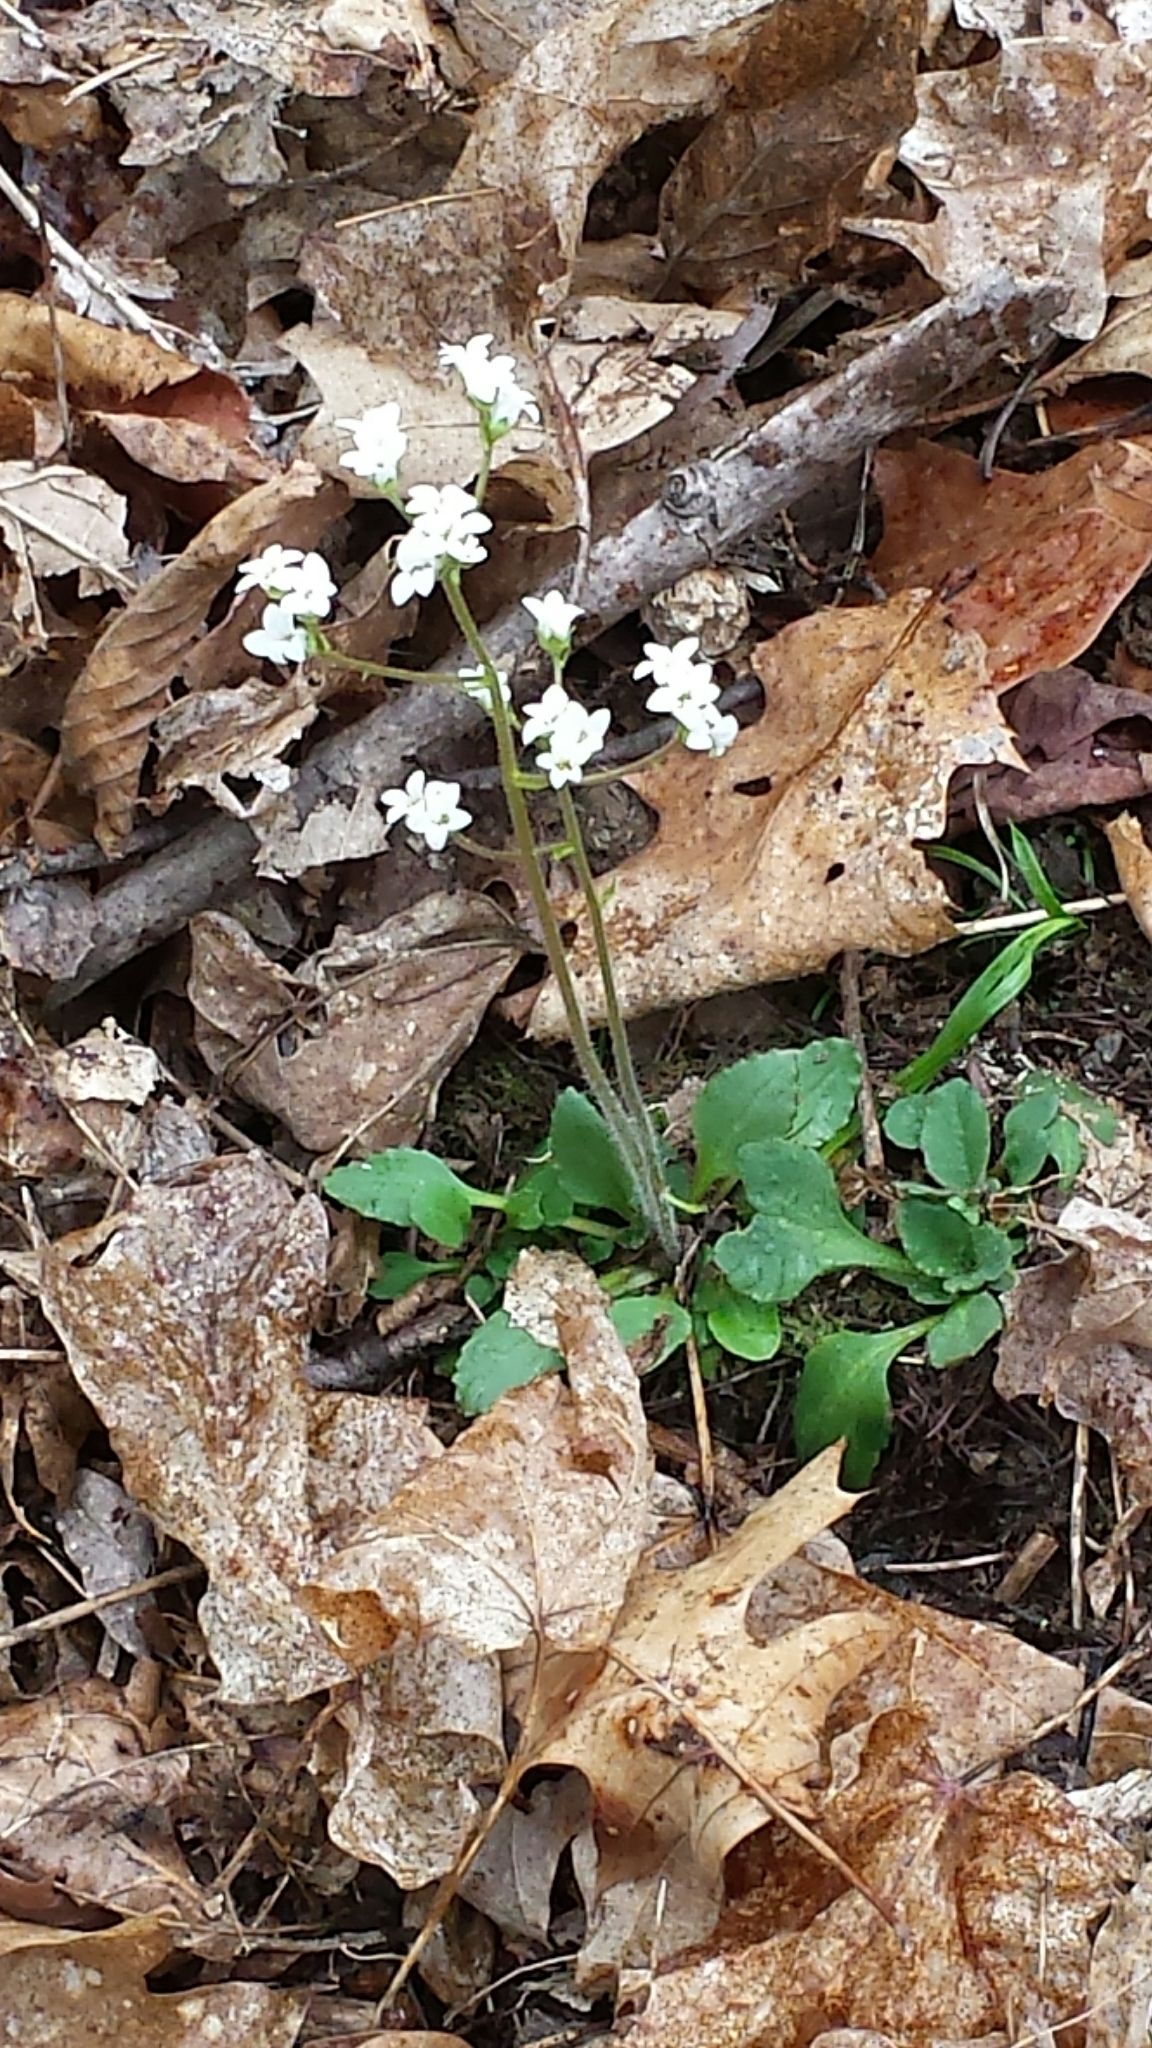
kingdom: Plantae
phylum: Tracheophyta
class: Magnoliopsida
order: Saxifragales
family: Saxifragaceae
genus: Micranthes
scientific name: Micranthes virginiensis
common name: Early saxifrage
